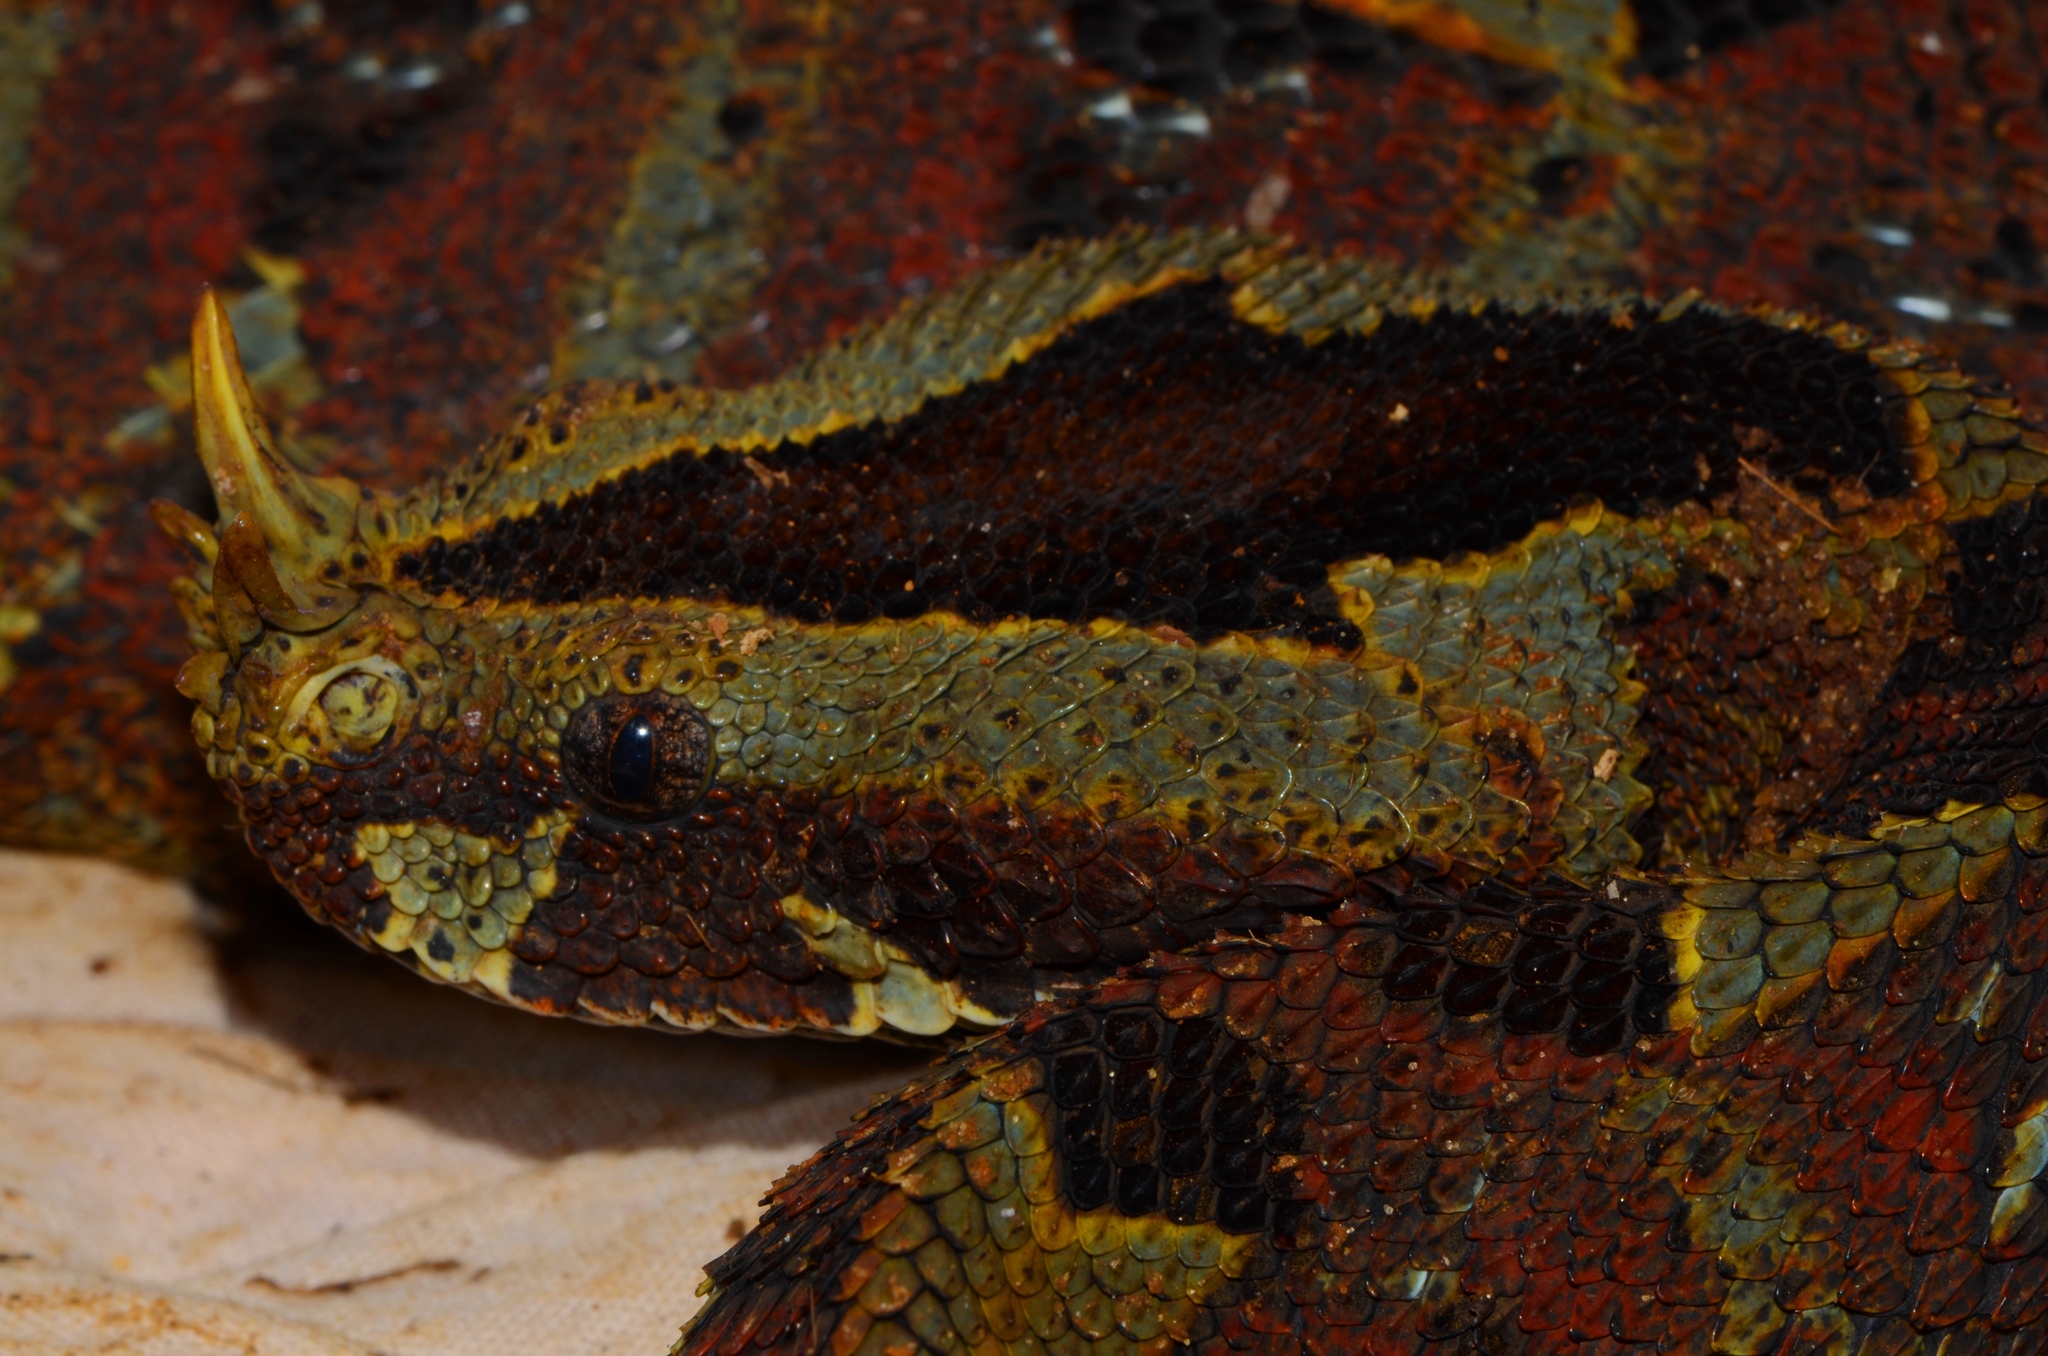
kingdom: Animalia
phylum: Chordata
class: Squamata
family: Viperidae
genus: Bitis
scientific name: Bitis nasicornis
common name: Rhinoceros viper
